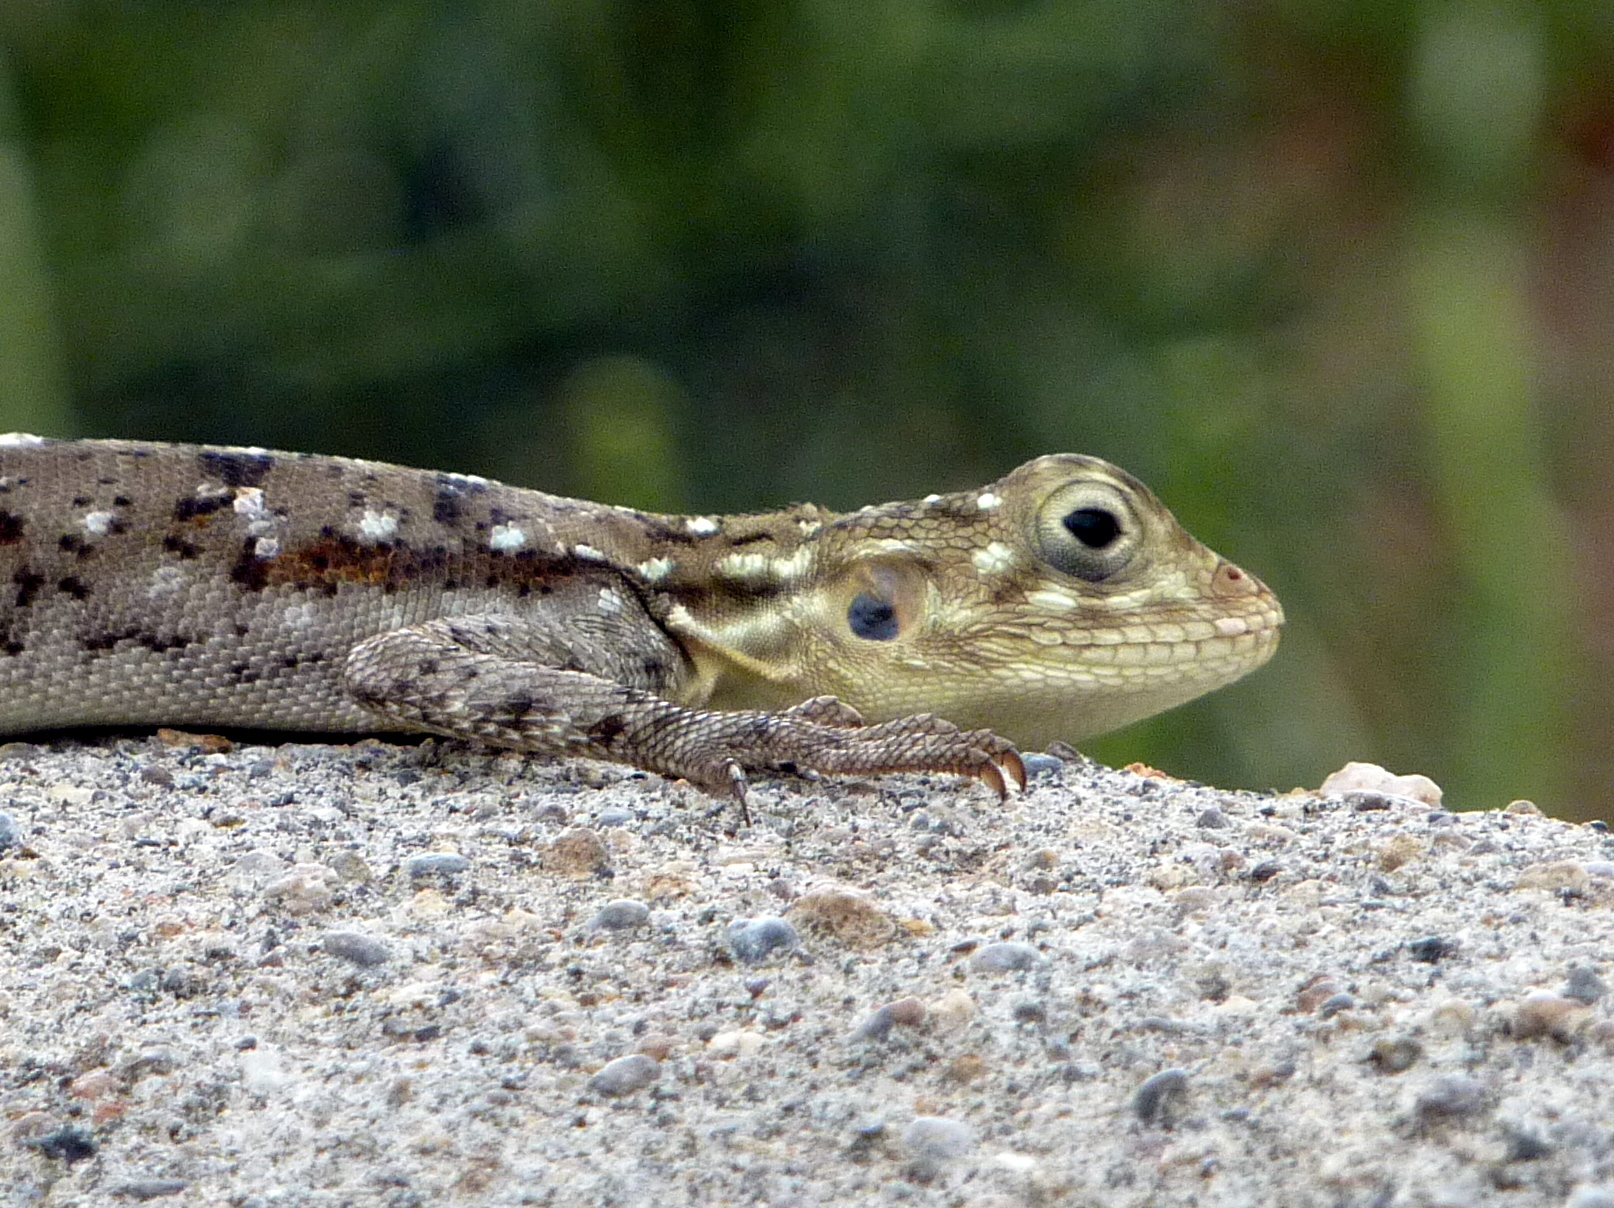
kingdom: Animalia
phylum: Chordata
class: Squamata
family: Agamidae
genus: Agama
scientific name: Agama dodomae
